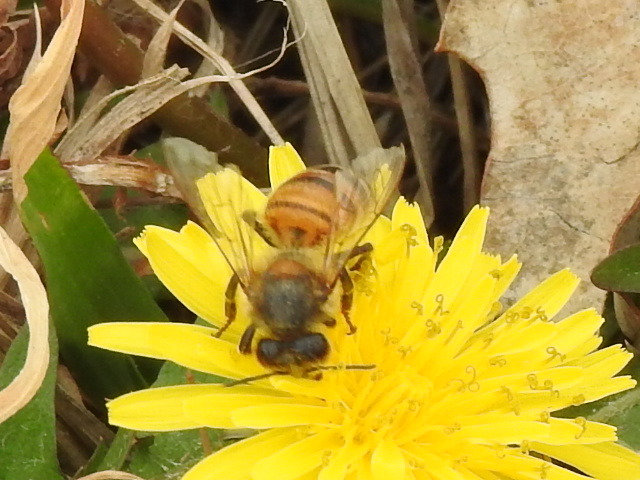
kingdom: Animalia
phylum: Arthropoda
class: Insecta
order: Hymenoptera
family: Apidae
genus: Apis
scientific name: Apis mellifera
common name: Honey bee
